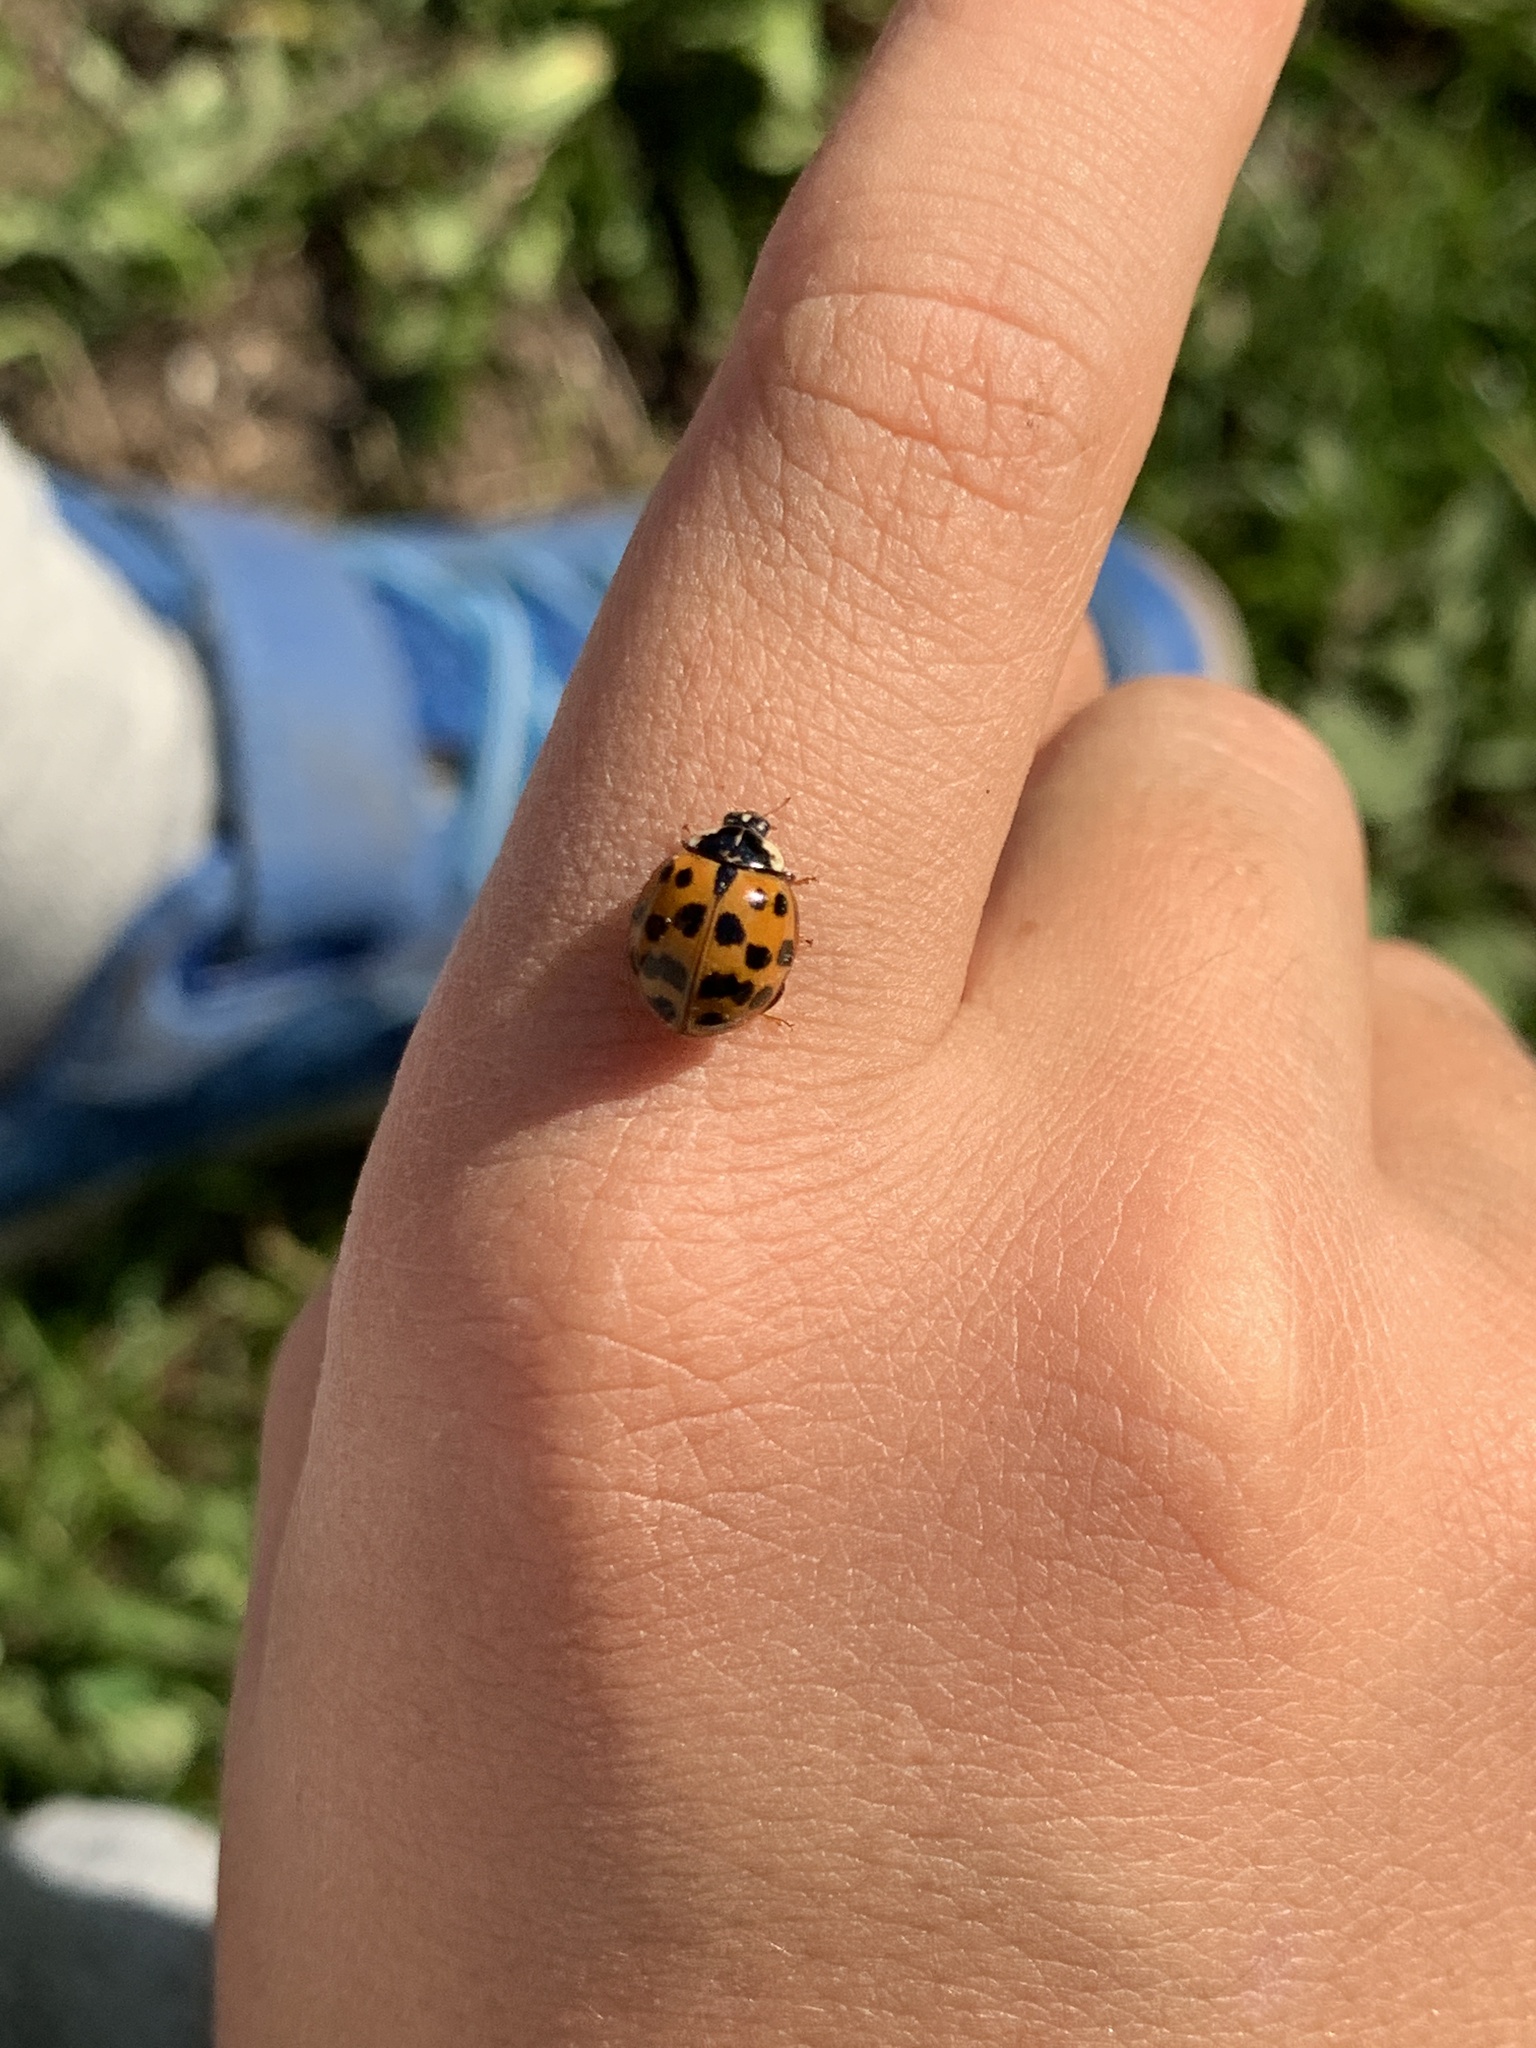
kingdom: Animalia
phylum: Arthropoda
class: Insecta
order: Coleoptera
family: Coccinellidae
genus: Harmonia
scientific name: Harmonia axyridis
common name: Harlequin ladybird
